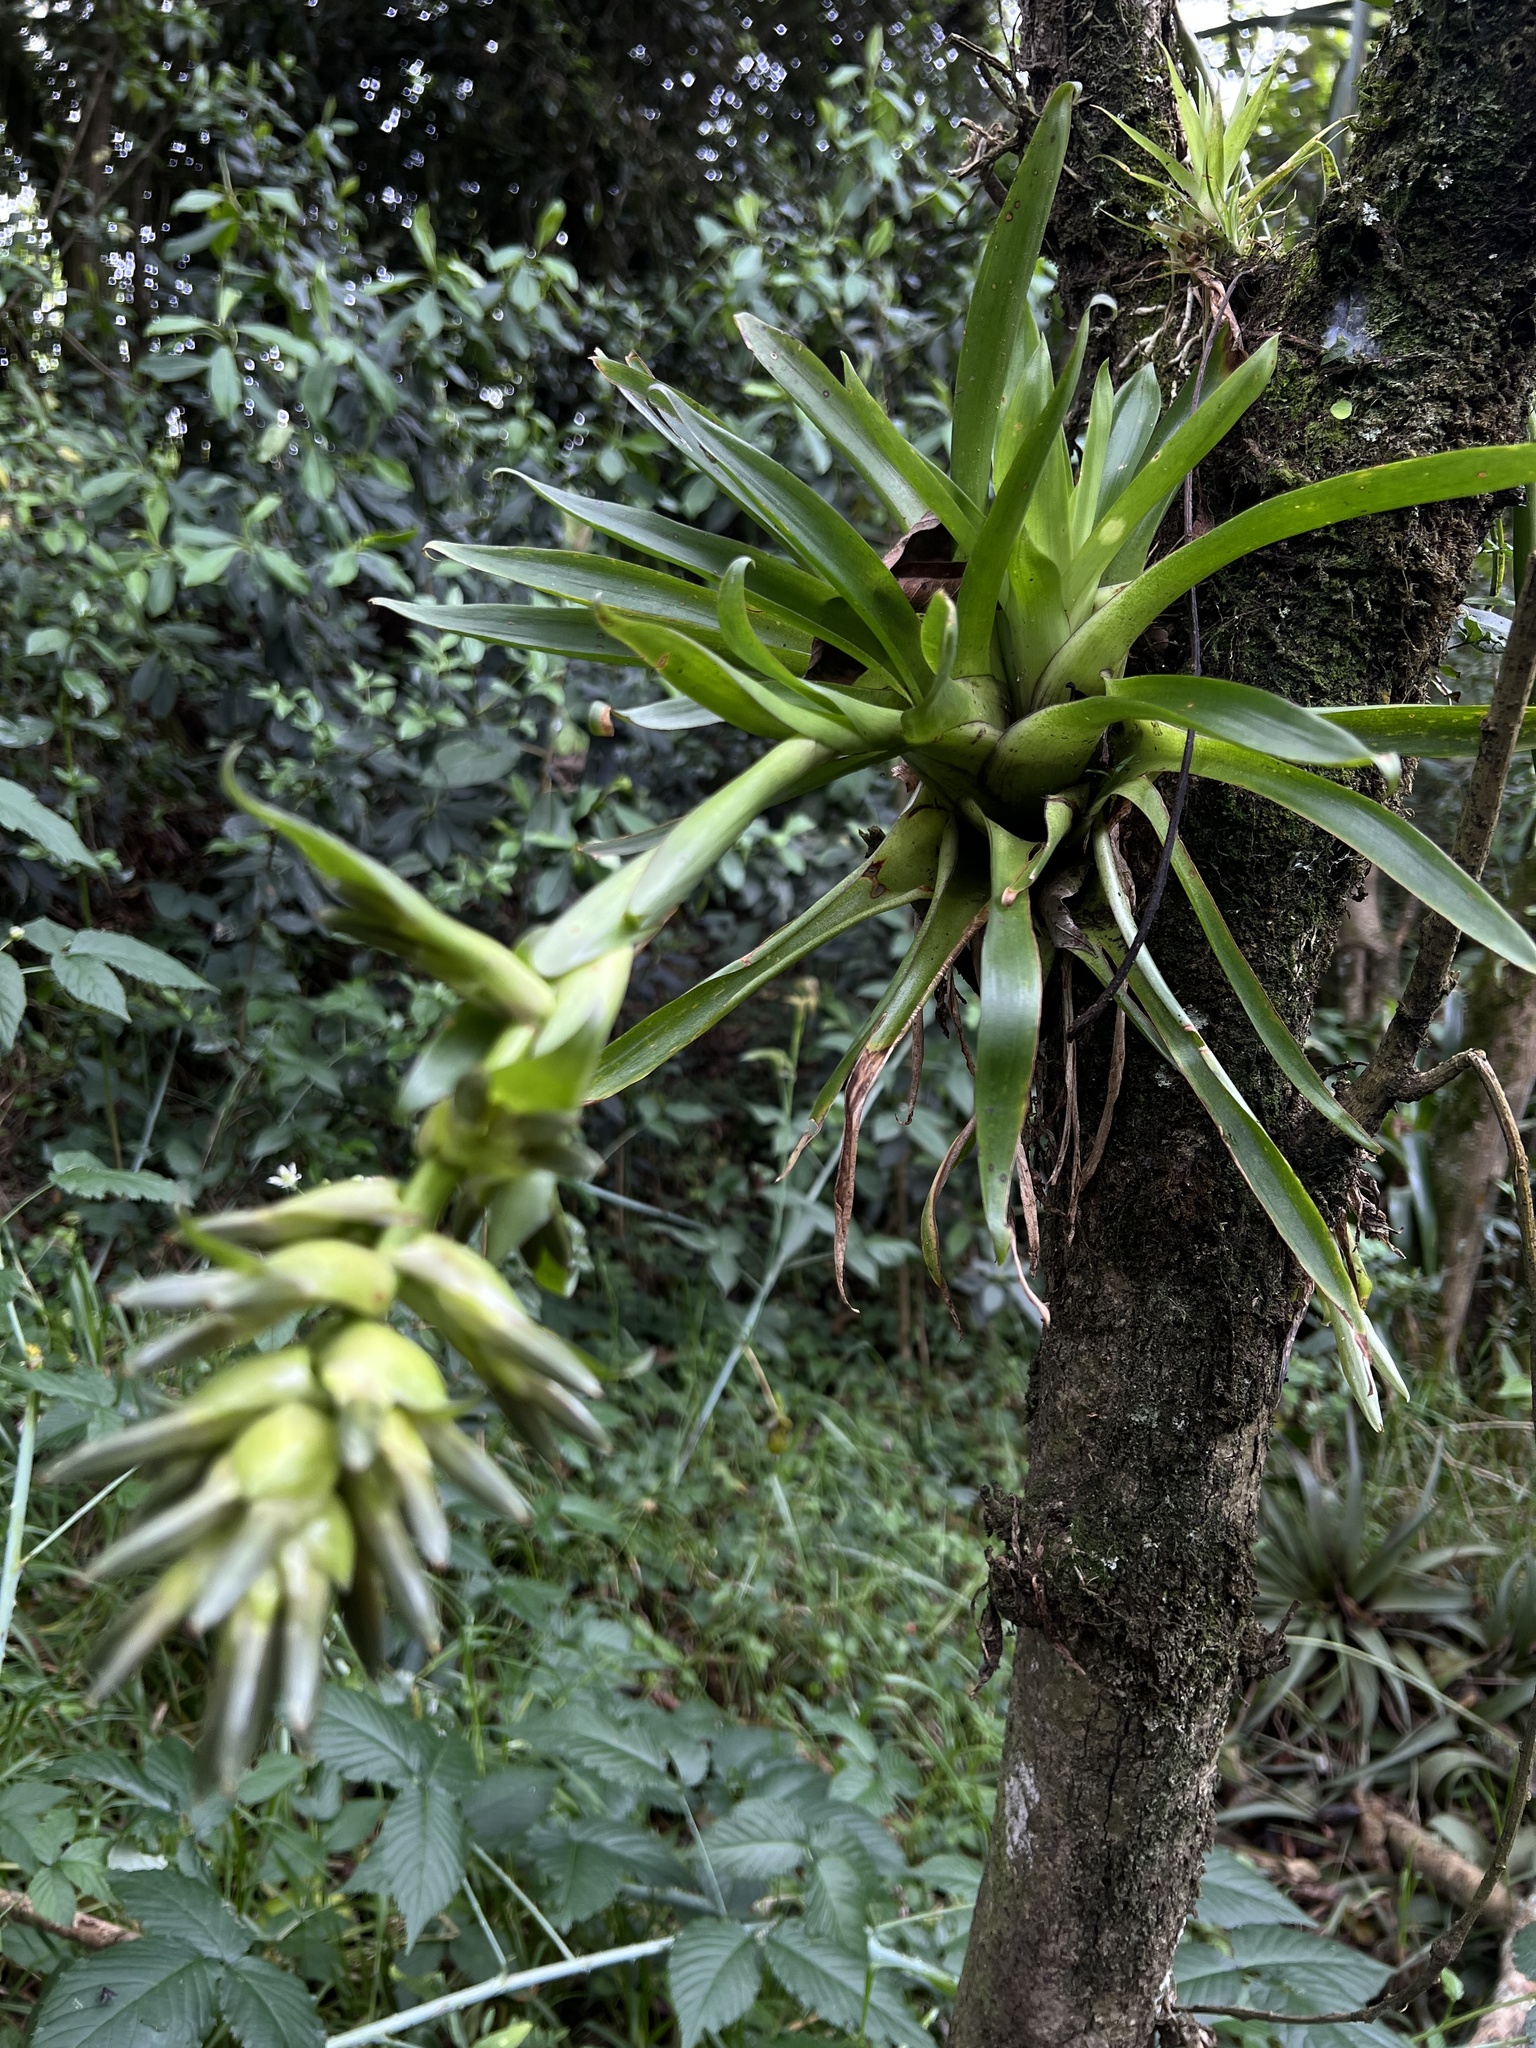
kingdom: Plantae
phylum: Tracheophyta
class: Liliopsida
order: Poales
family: Bromeliaceae
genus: Tillandsia
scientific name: Tillandsia biflora
